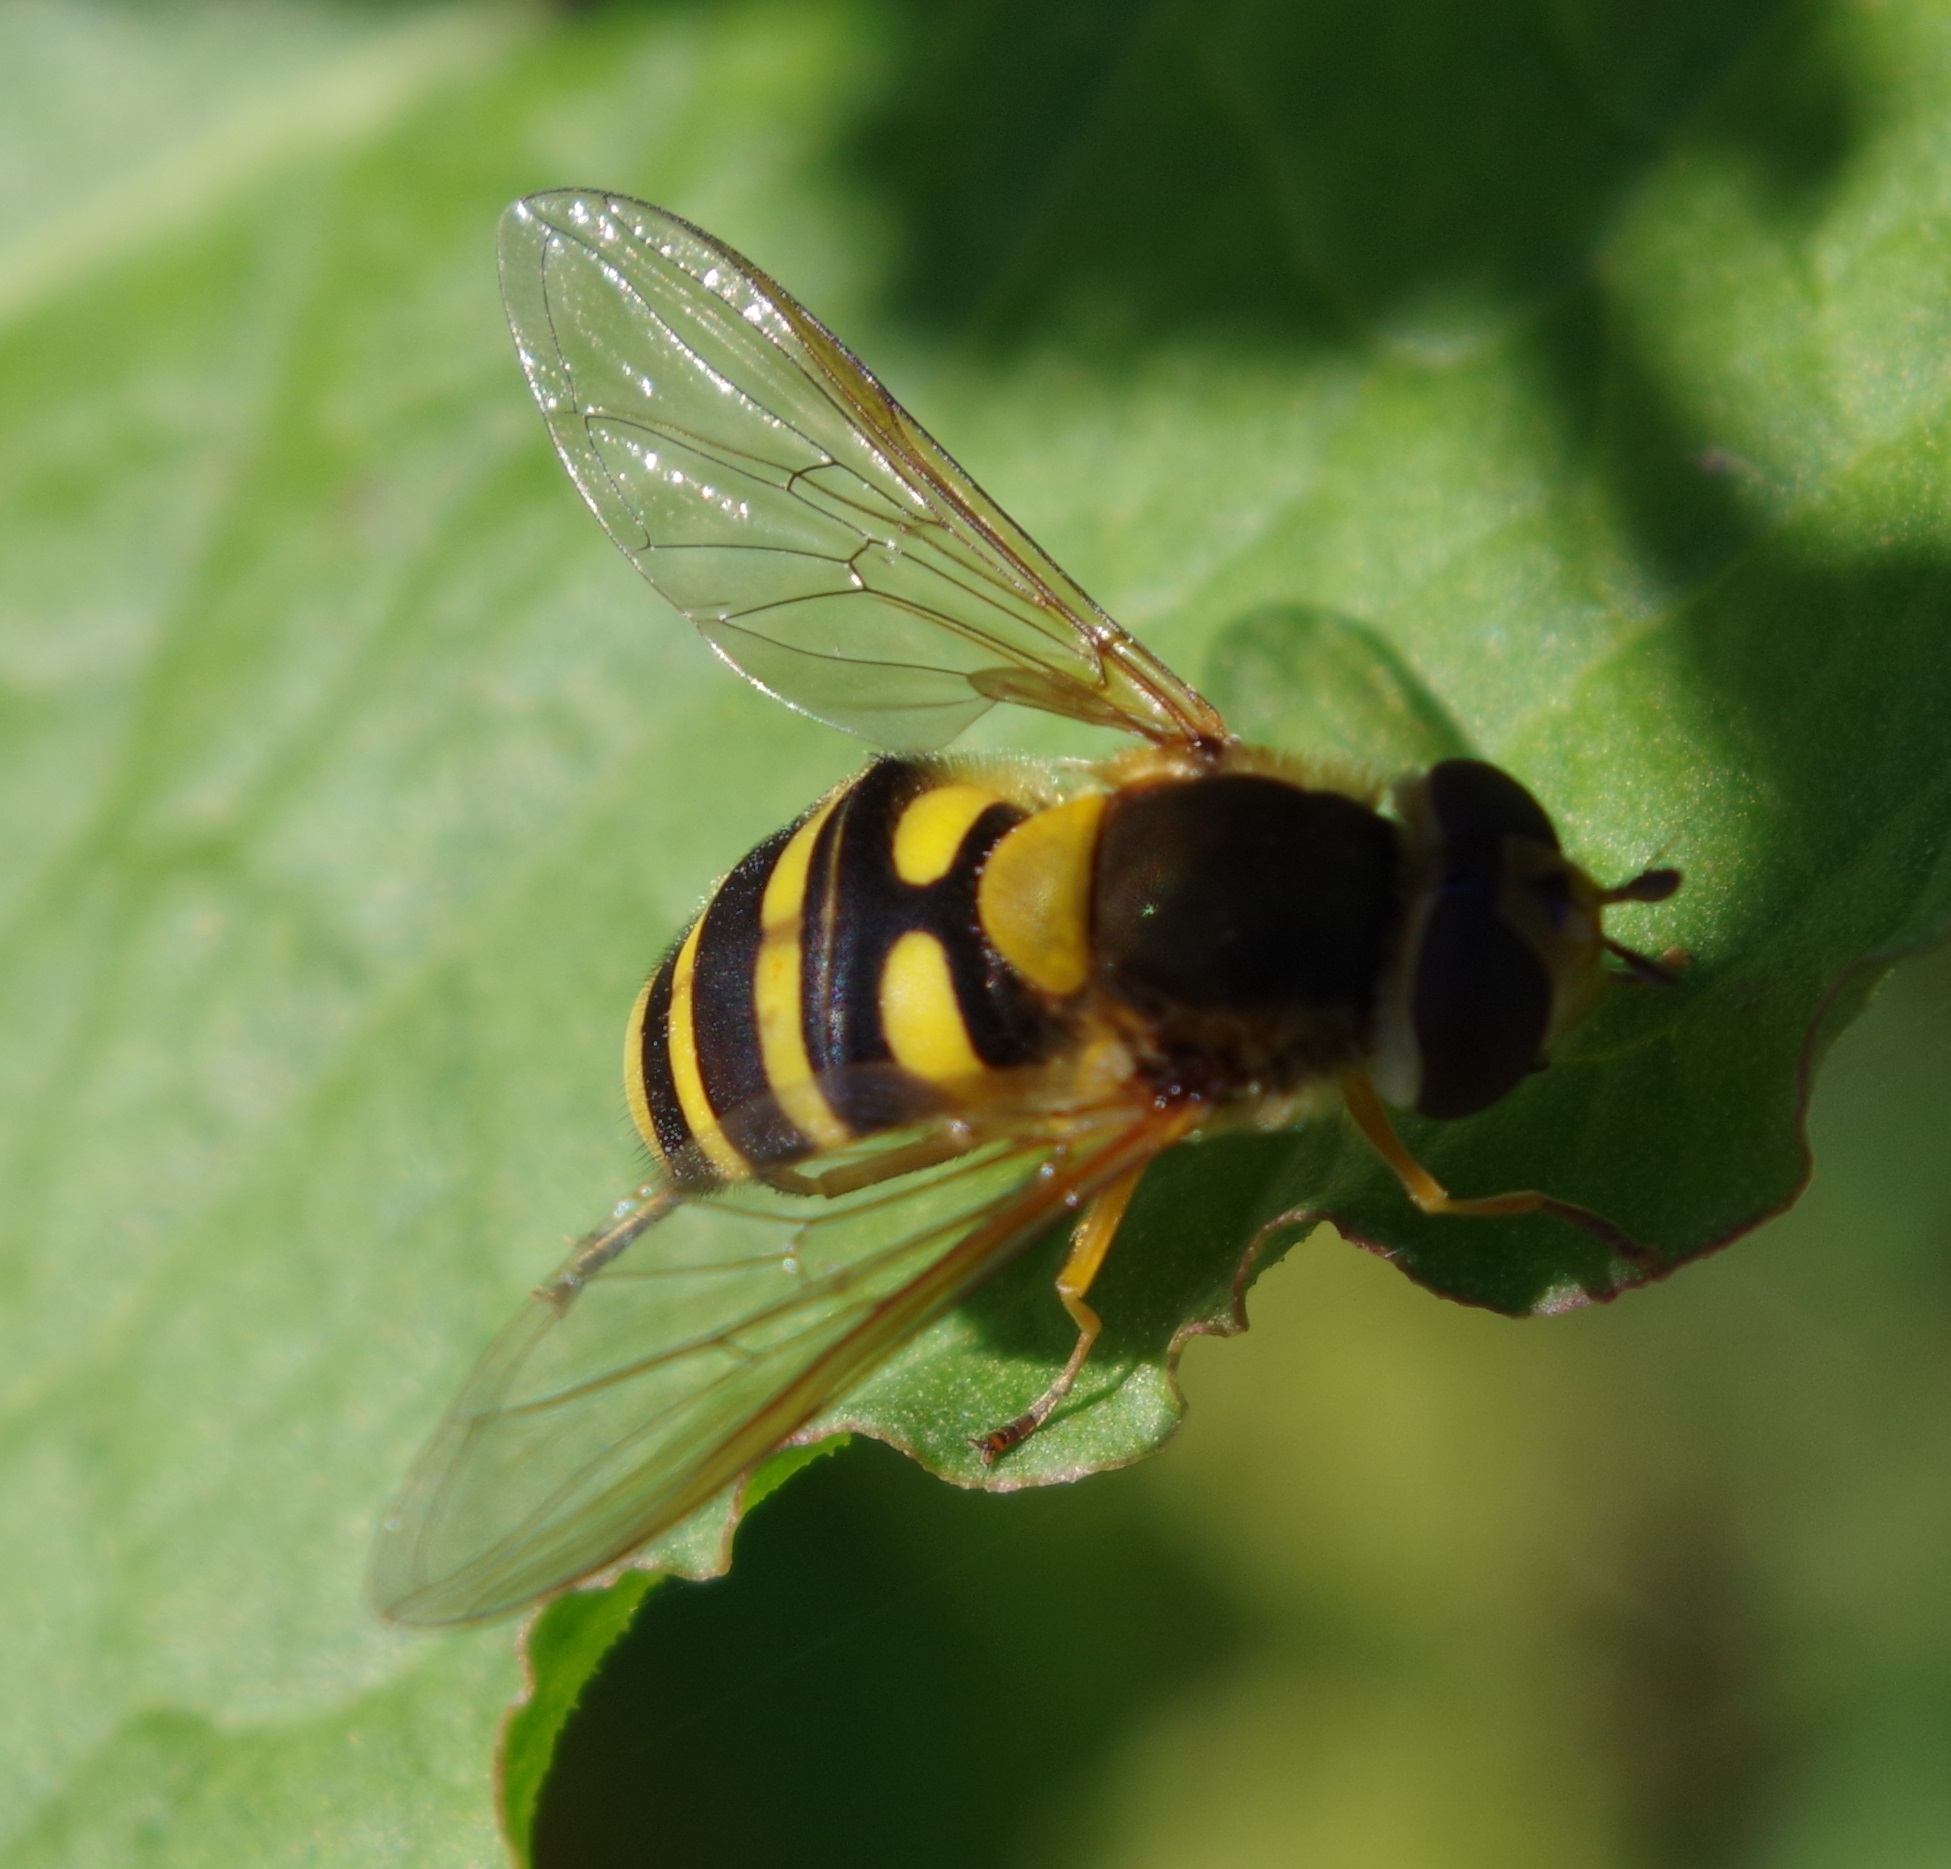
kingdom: Animalia
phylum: Arthropoda
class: Insecta
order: Diptera
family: Syrphidae
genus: Syrphus
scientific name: Syrphus
